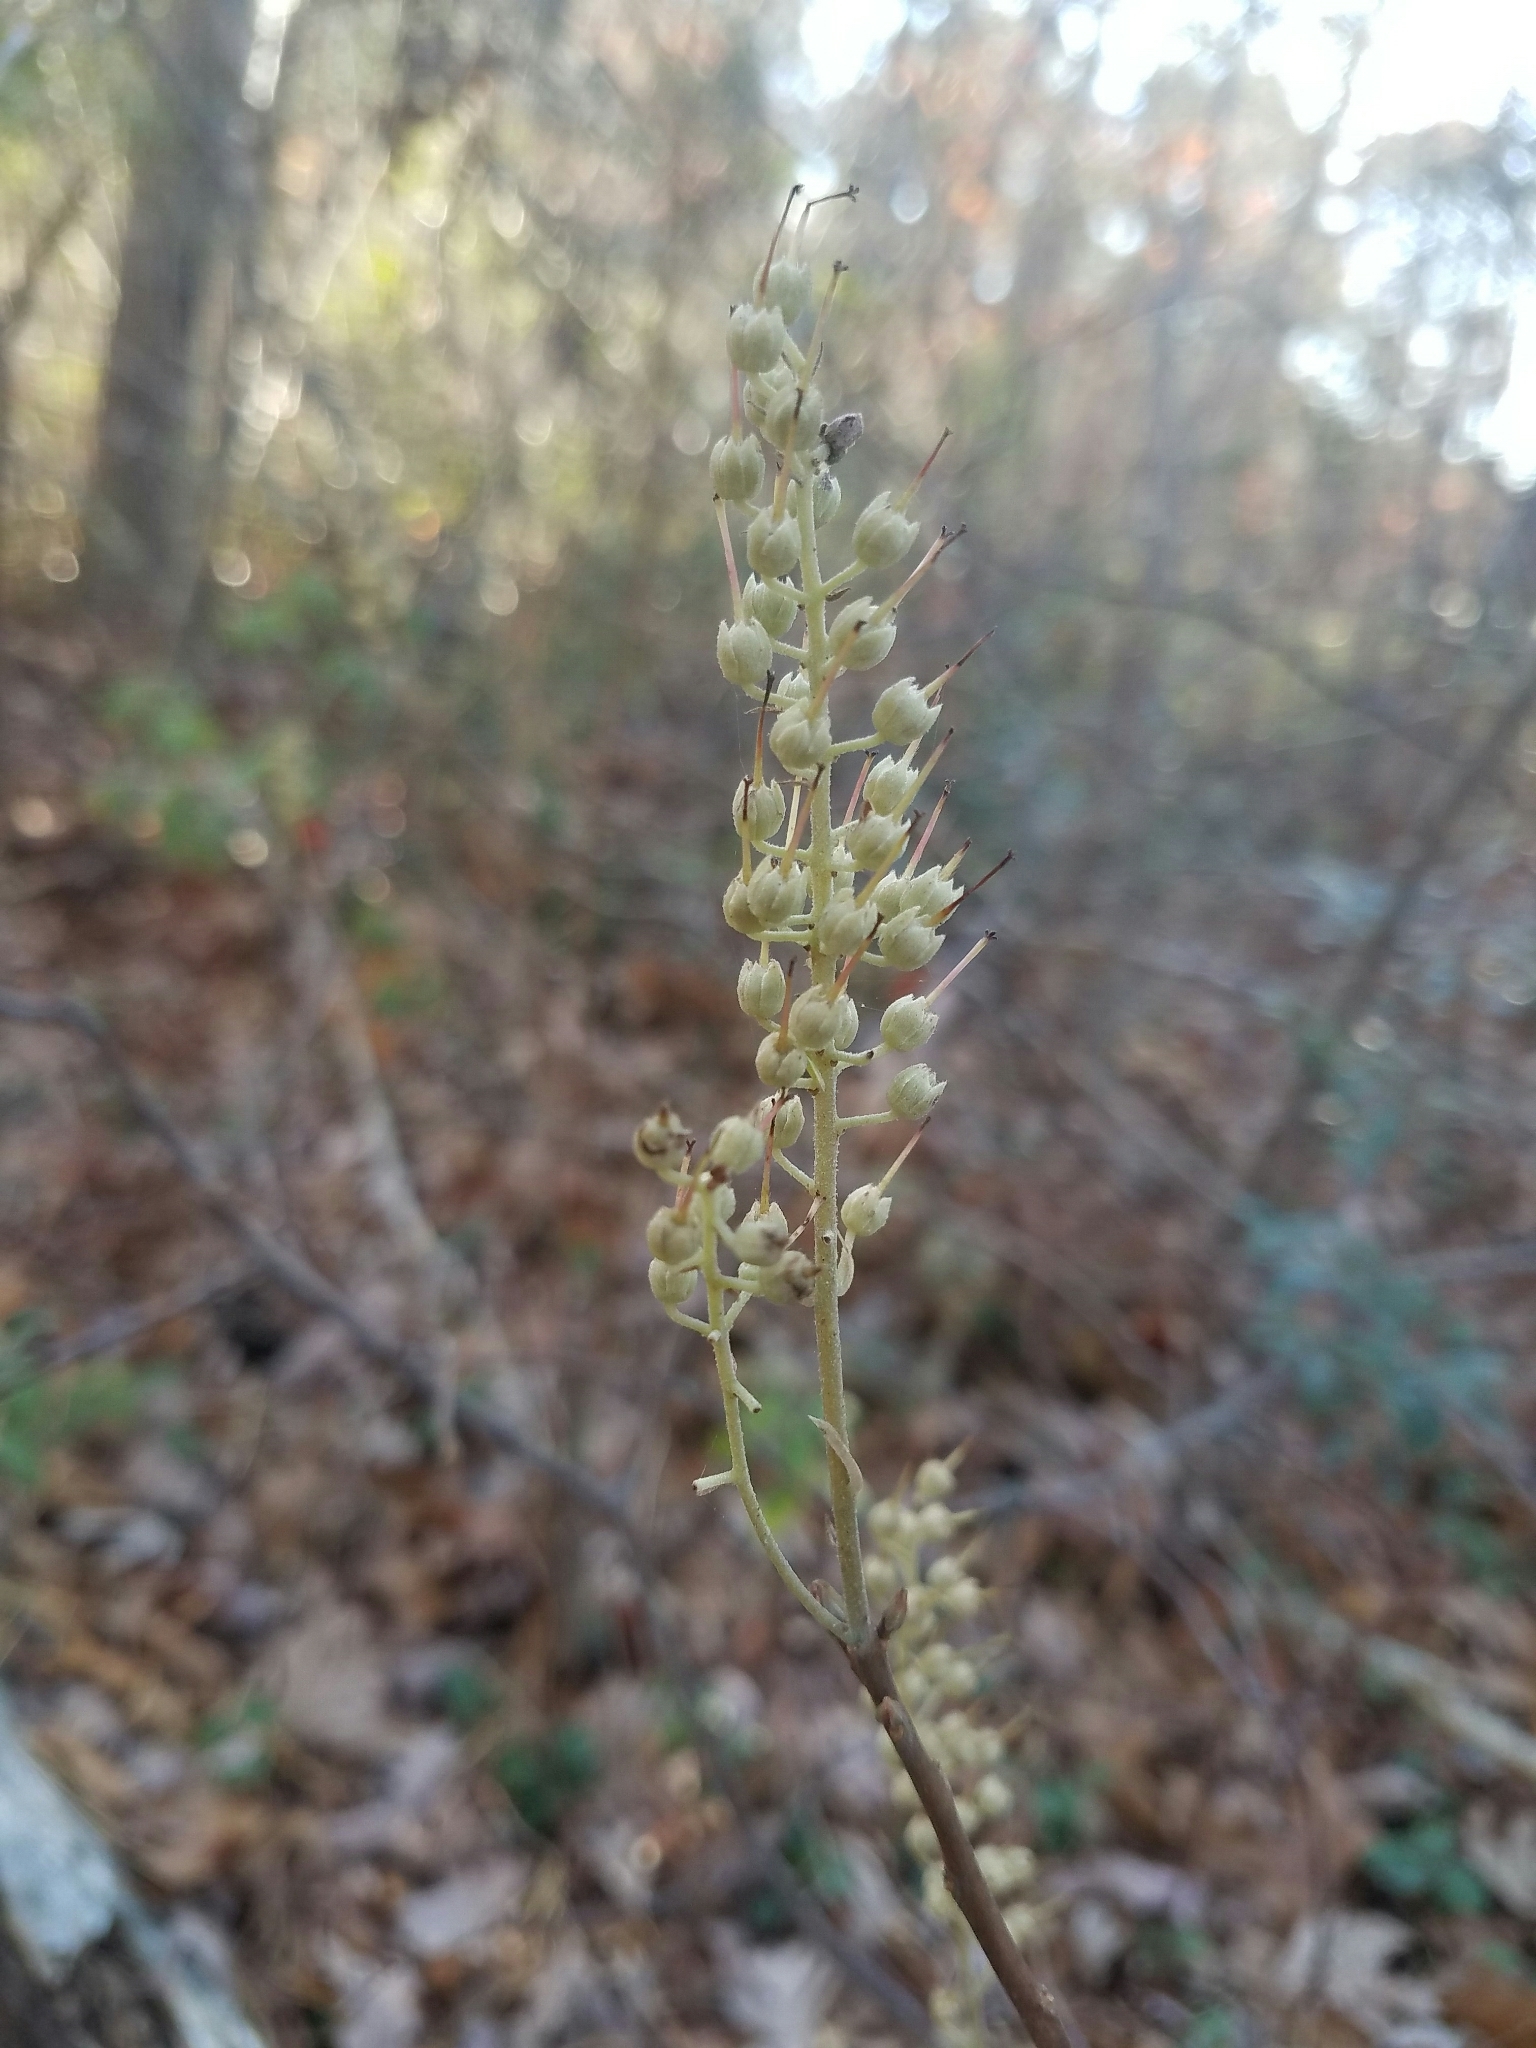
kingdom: Plantae
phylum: Tracheophyta
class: Magnoliopsida
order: Ericales
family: Clethraceae
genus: Clethra
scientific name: Clethra alnifolia
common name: Sweet pepperbush
